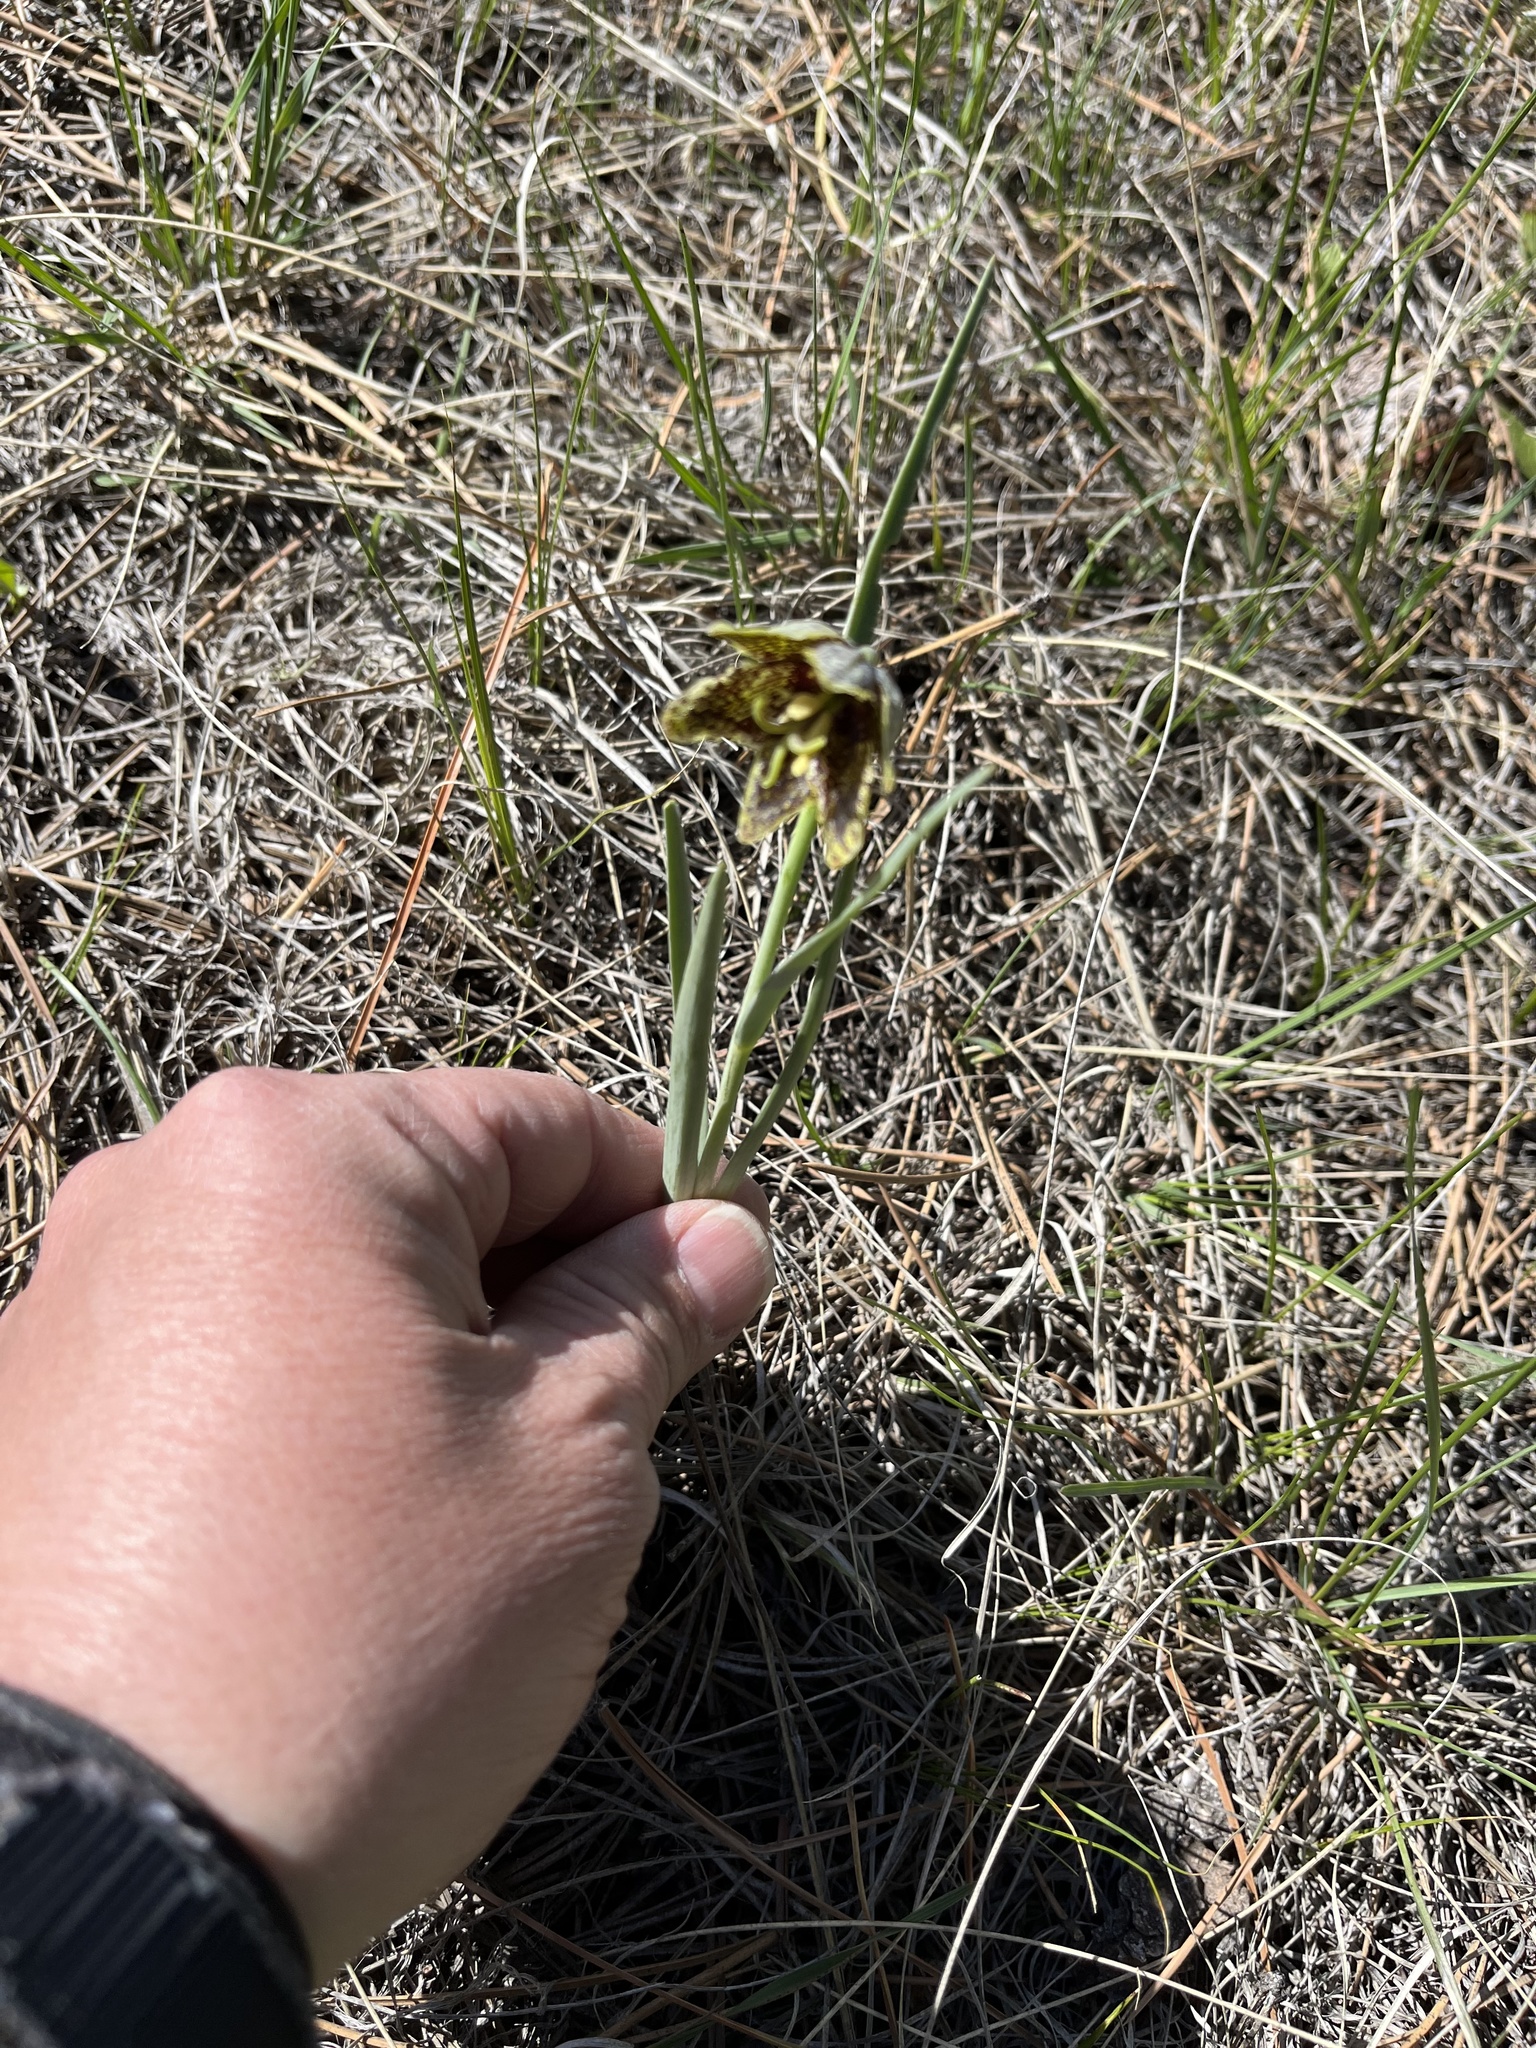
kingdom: Plantae
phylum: Tracheophyta
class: Liliopsida
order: Liliales
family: Liliaceae
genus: Fritillaria
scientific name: Fritillaria atropurpurea
